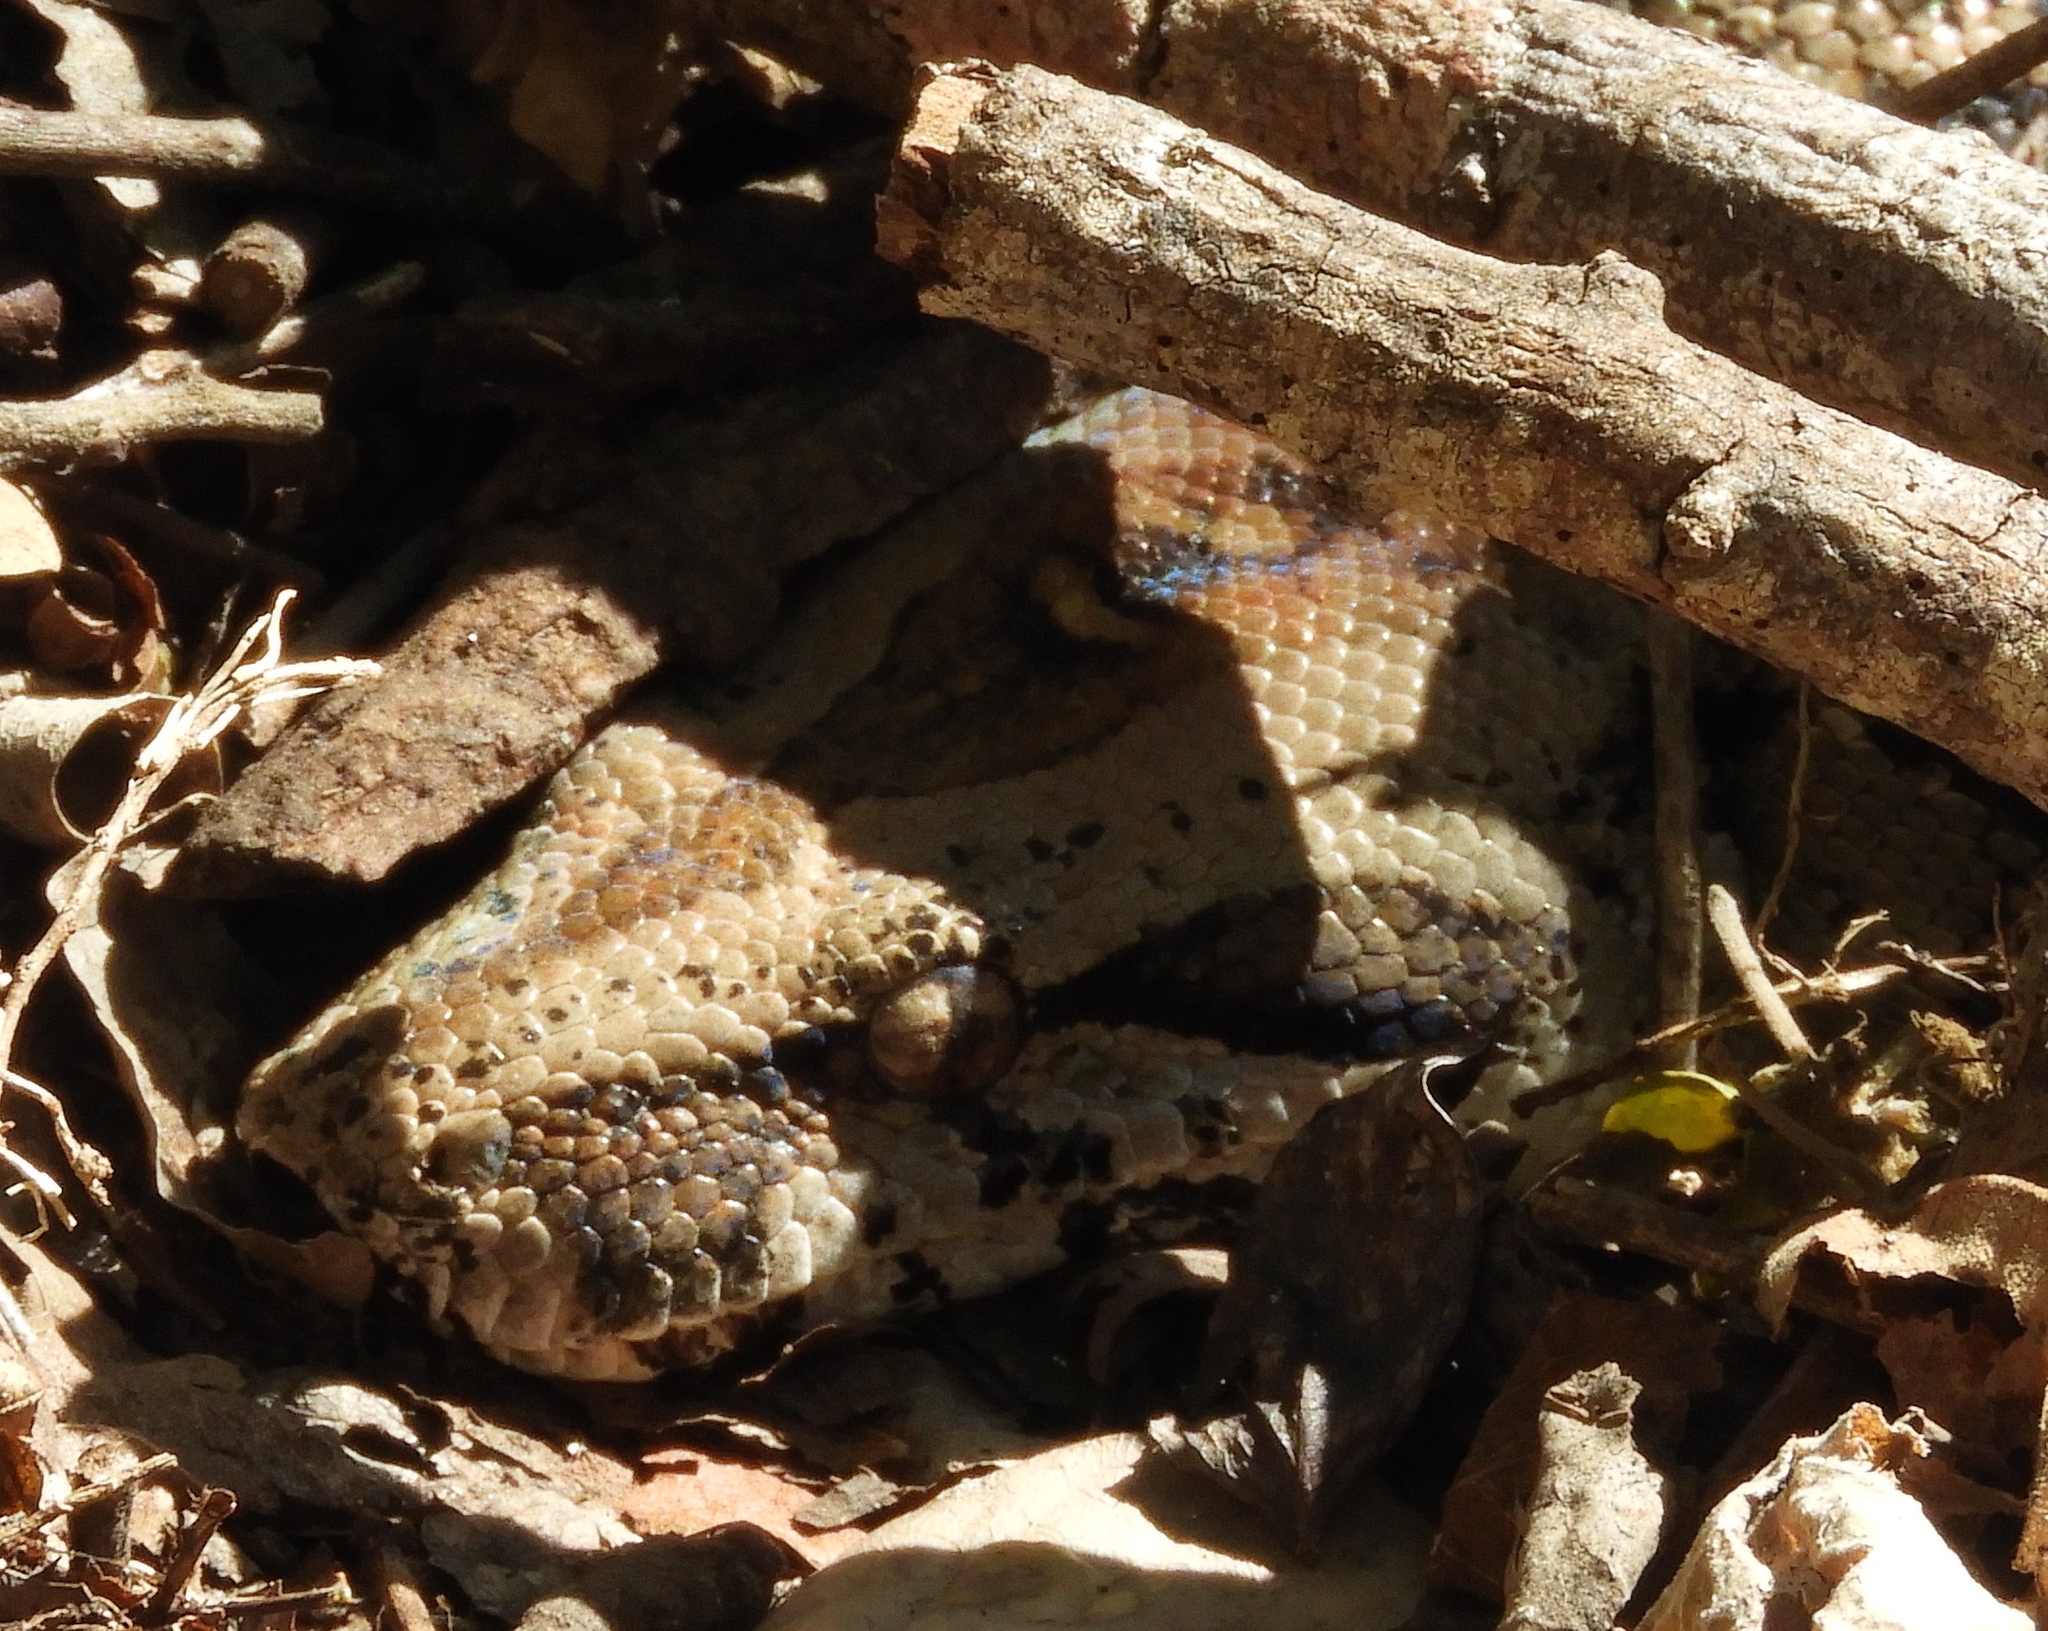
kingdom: Animalia
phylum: Chordata
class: Squamata
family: Boidae
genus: Boa
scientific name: Boa
